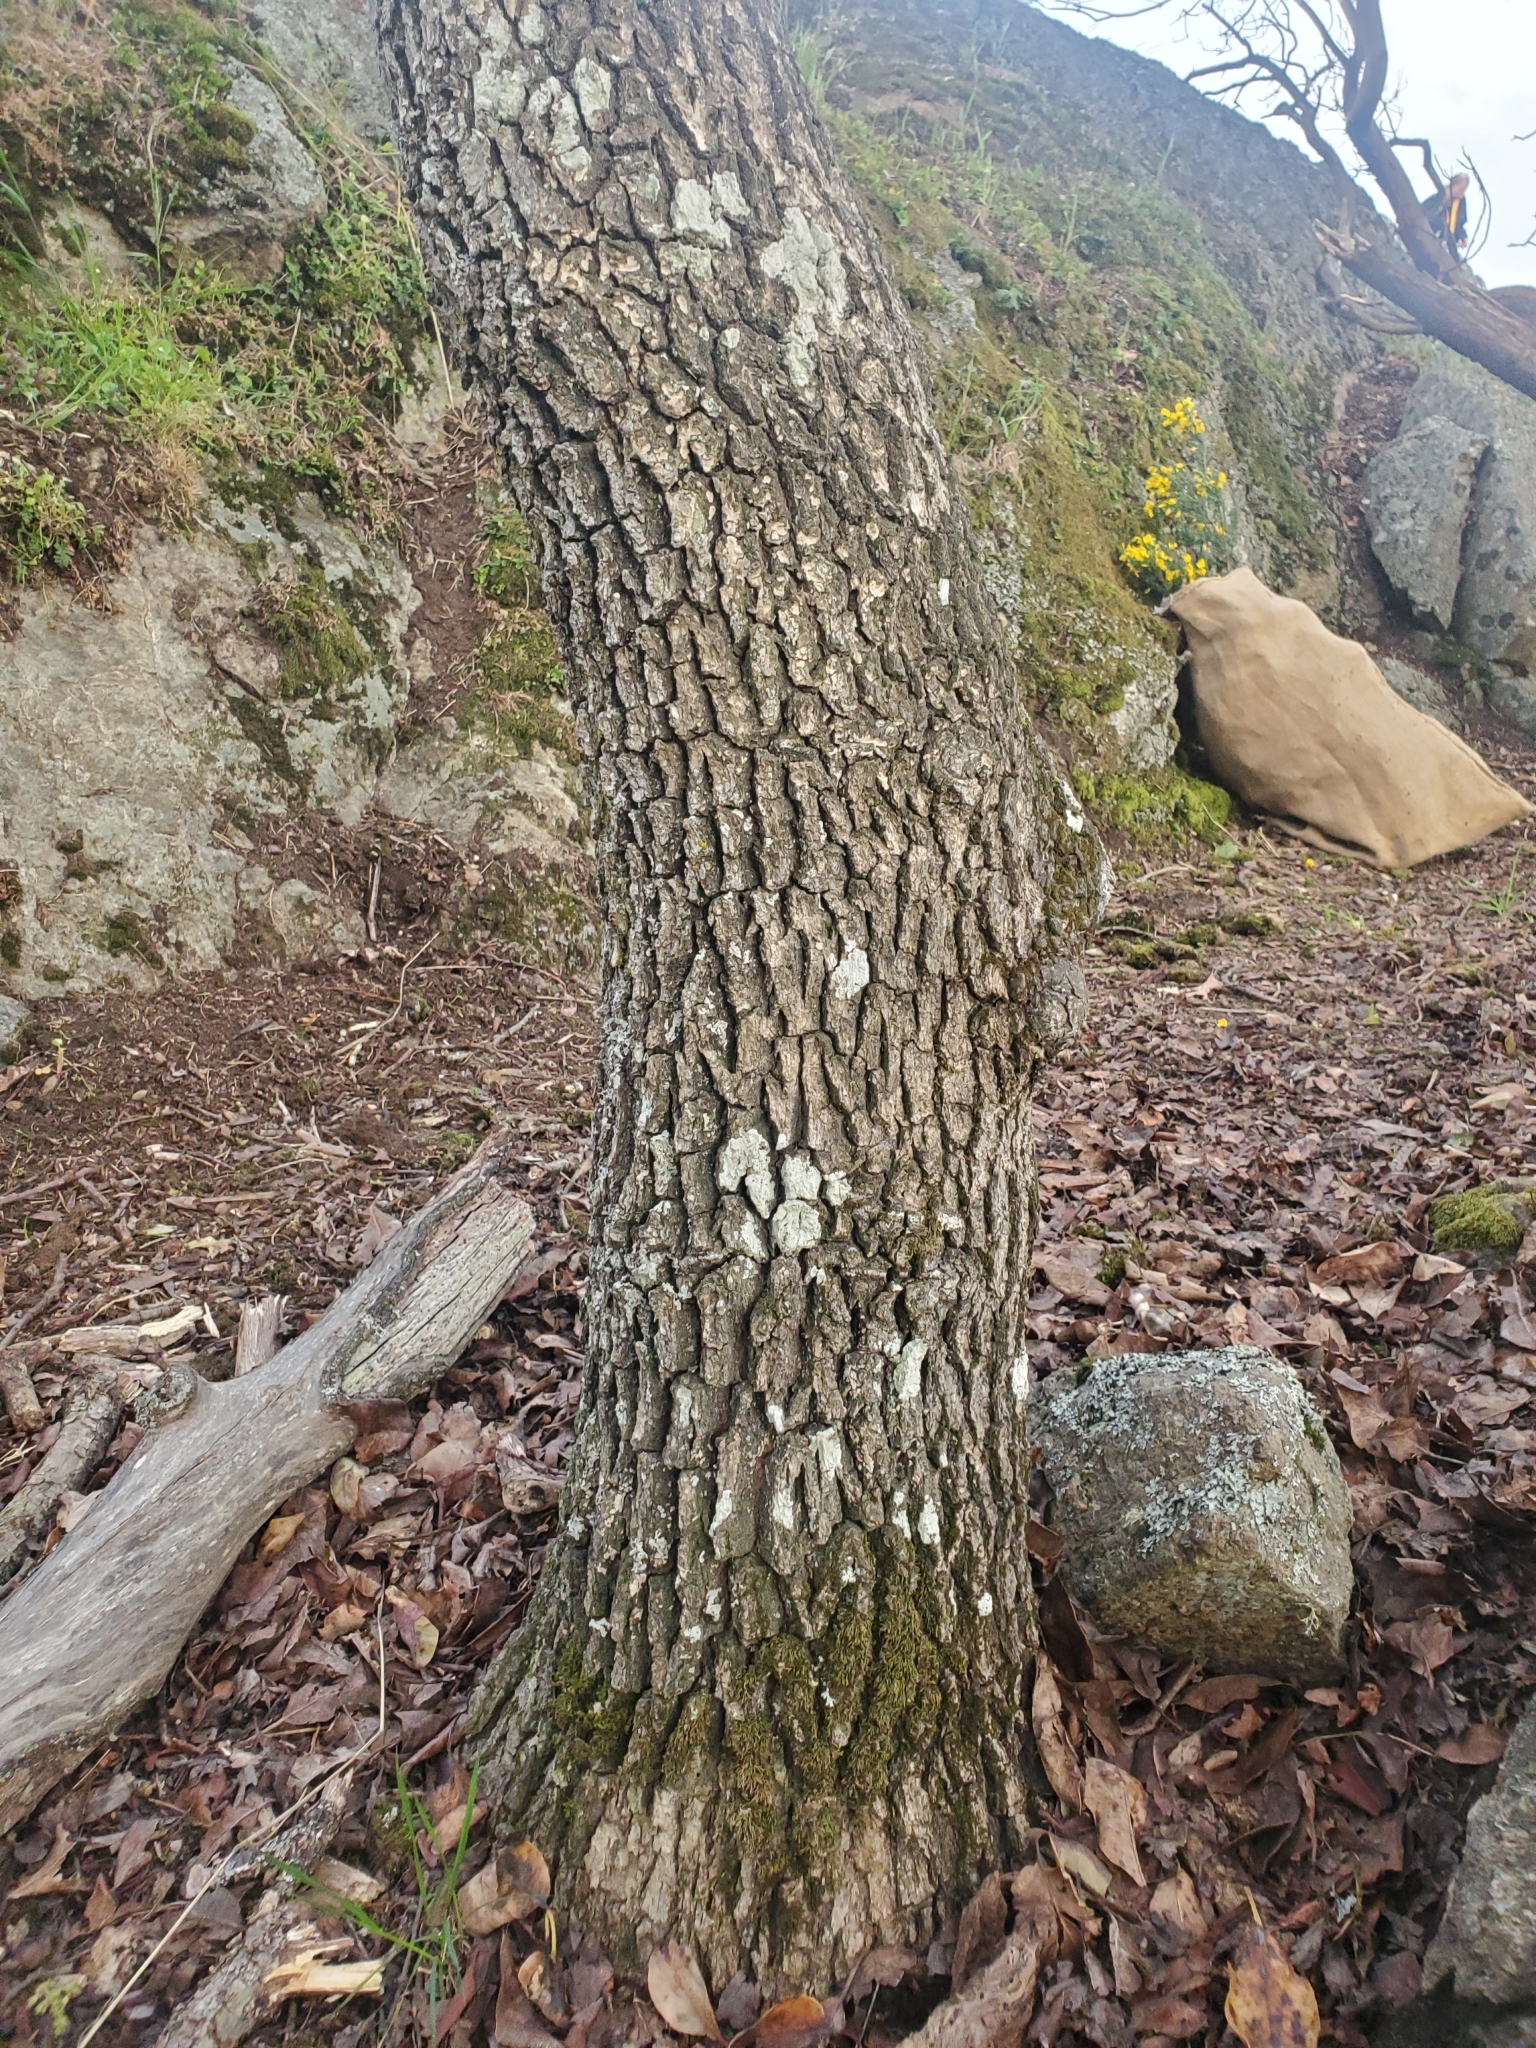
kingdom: Plantae
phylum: Tracheophyta
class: Magnoliopsida
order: Fagales
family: Fagaceae
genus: Quercus
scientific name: Quercus garryana
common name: Garry oak
